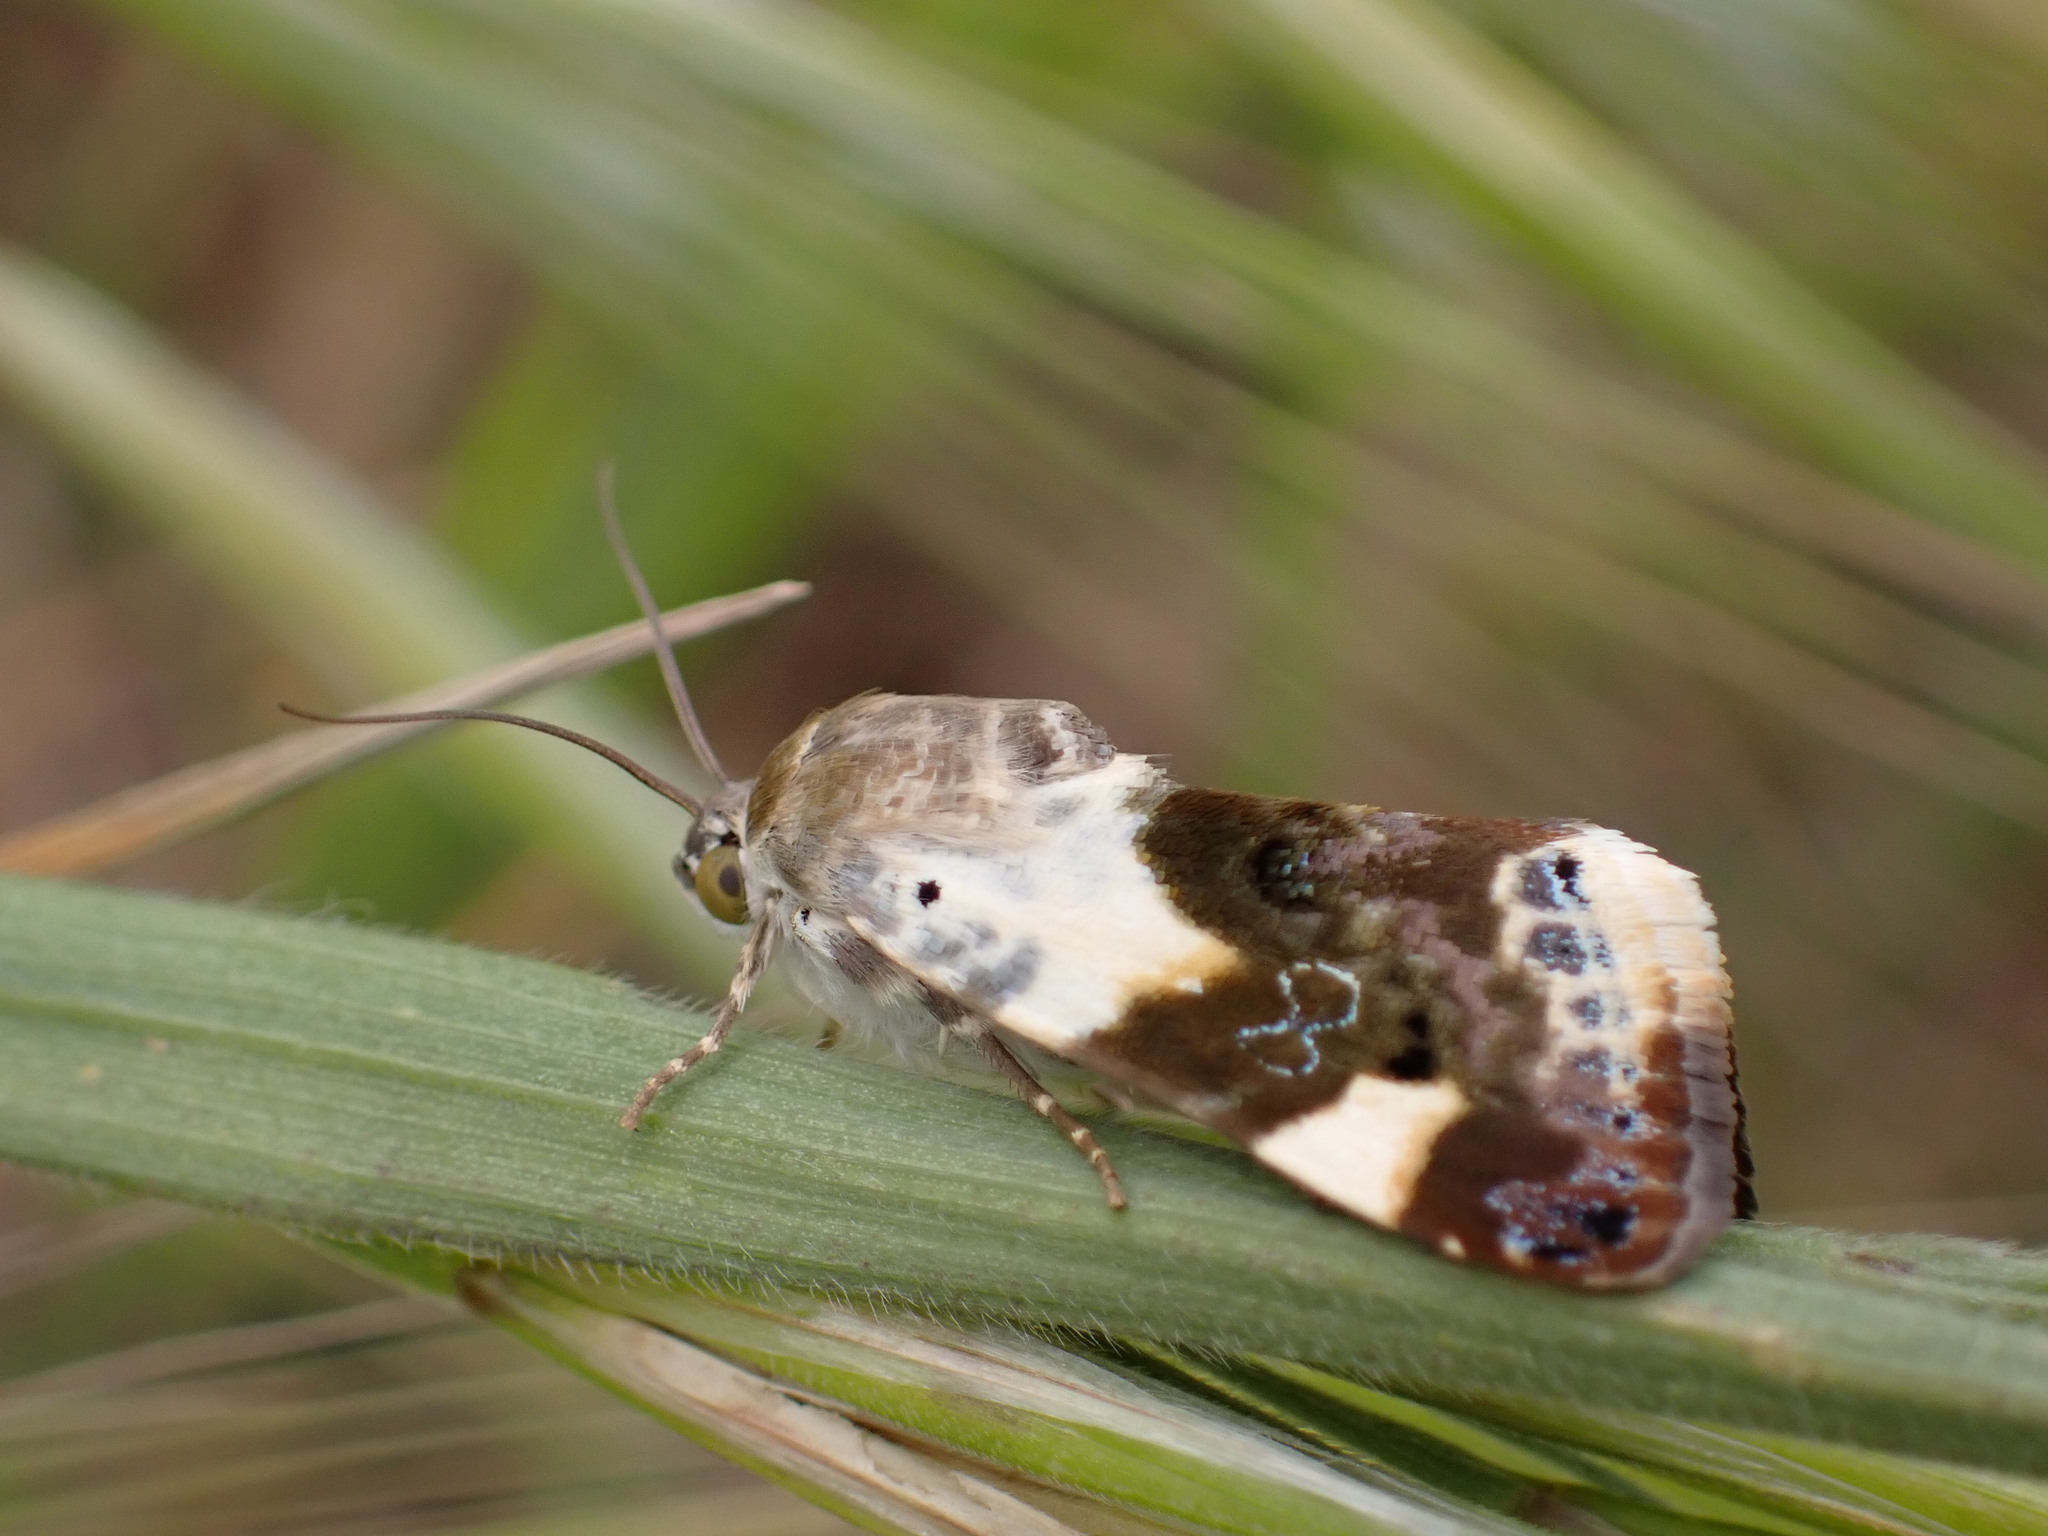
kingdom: Animalia
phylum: Arthropoda
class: Insecta
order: Lepidoptera
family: Noctuidae
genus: Acontia
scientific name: Acontia lucida
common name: Pale shoulder
